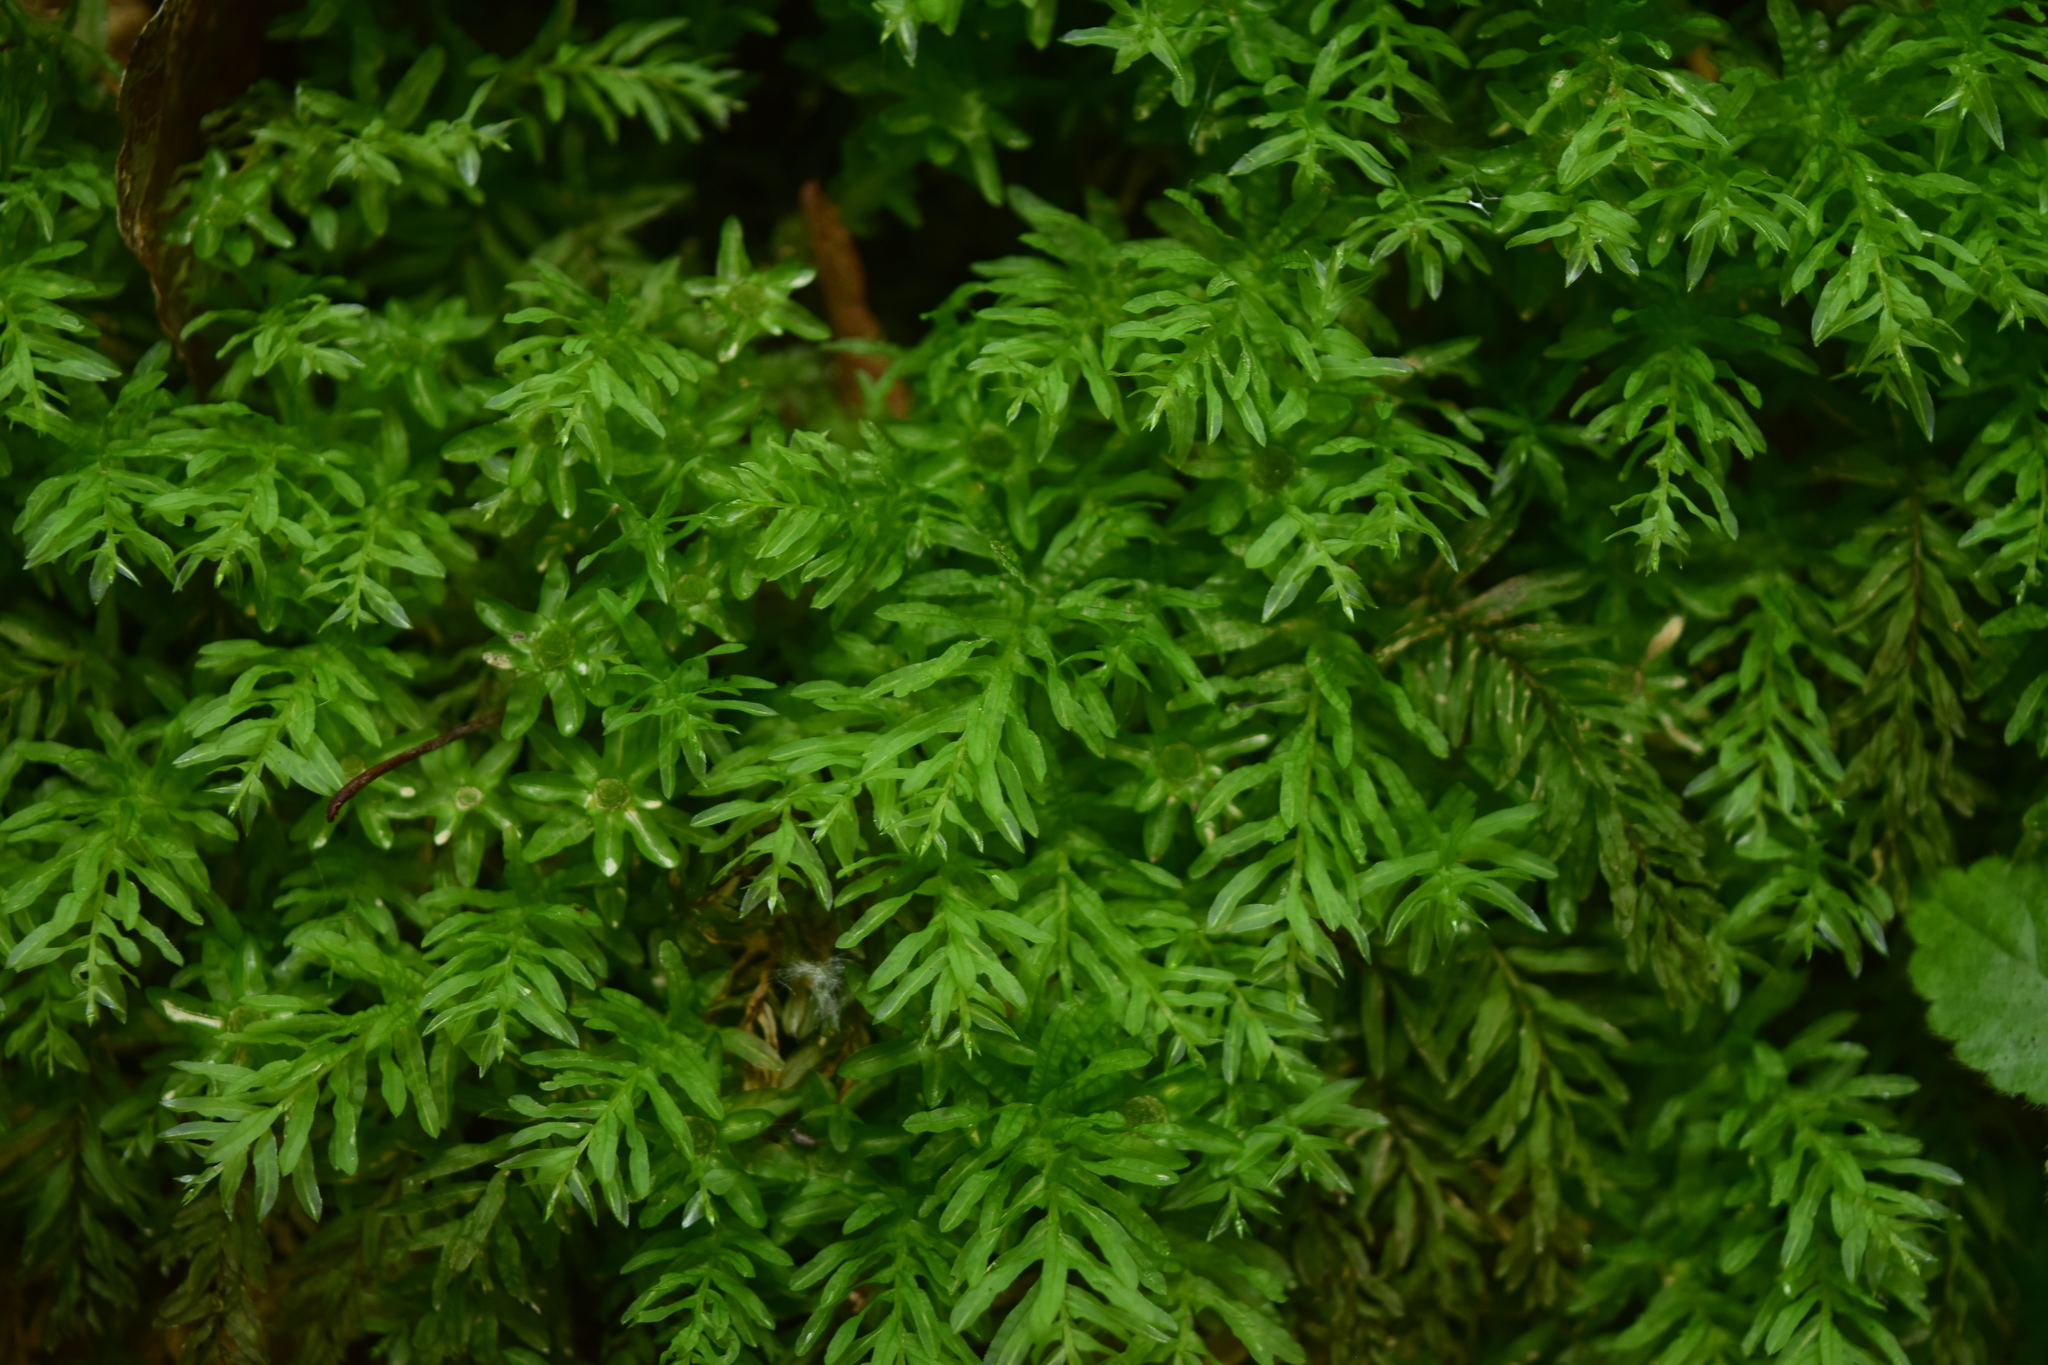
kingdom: Plantae
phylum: Bryophyta
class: Bryopsida
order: Bryales
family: Mniaceae
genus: Plagiomnium
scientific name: Plagiomnium undulatum
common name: Hart's-tongue thyme-moss
